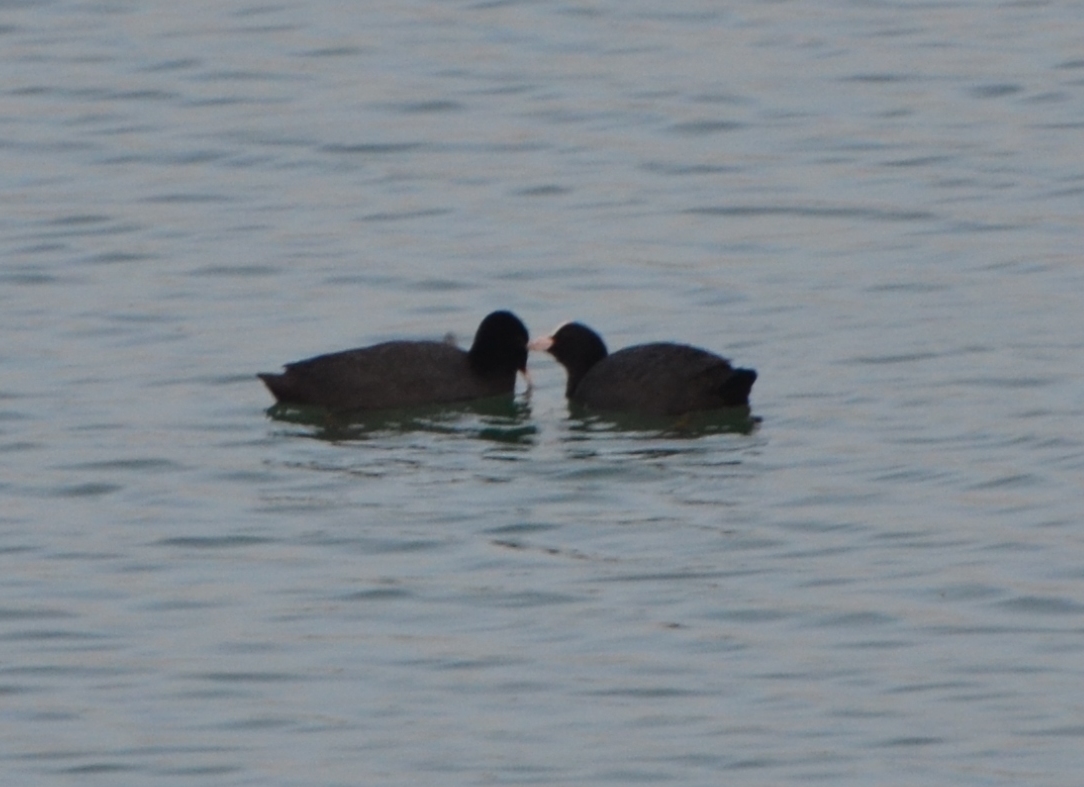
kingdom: Animalia
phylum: Chordata
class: Aves
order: Gruiformes
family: Rallidae
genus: Fulica
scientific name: Fulica atra
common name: Eurasian coot
